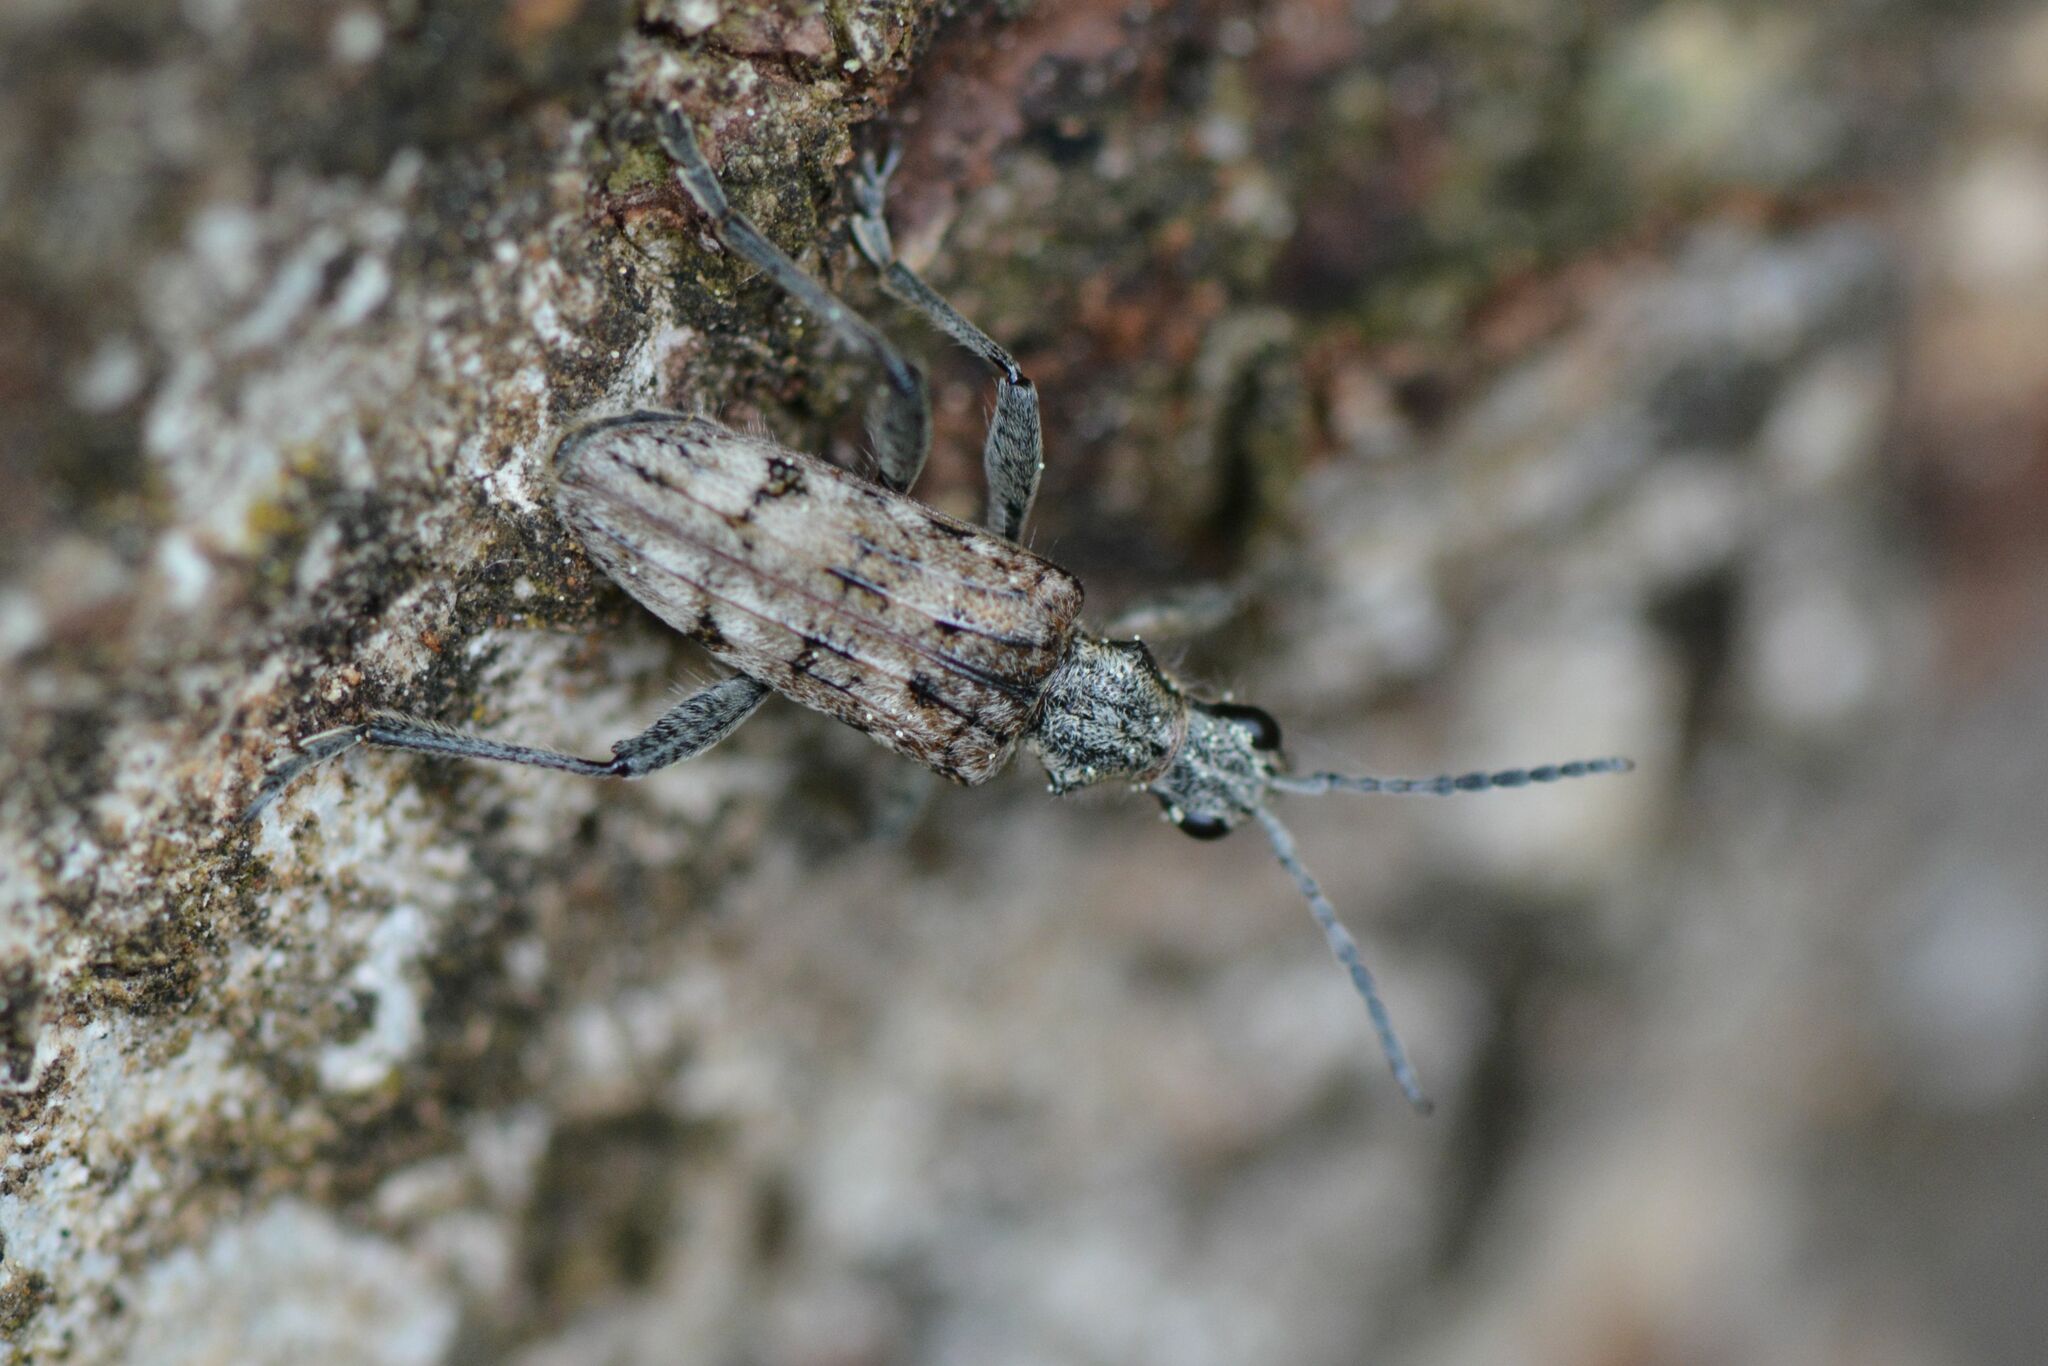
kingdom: Animalia
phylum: Arthropoda
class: Insecta
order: Coleoptera
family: Cerambycidae
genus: Rhagium
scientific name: Rhagium inquisitor
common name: Ribbed pine borer
